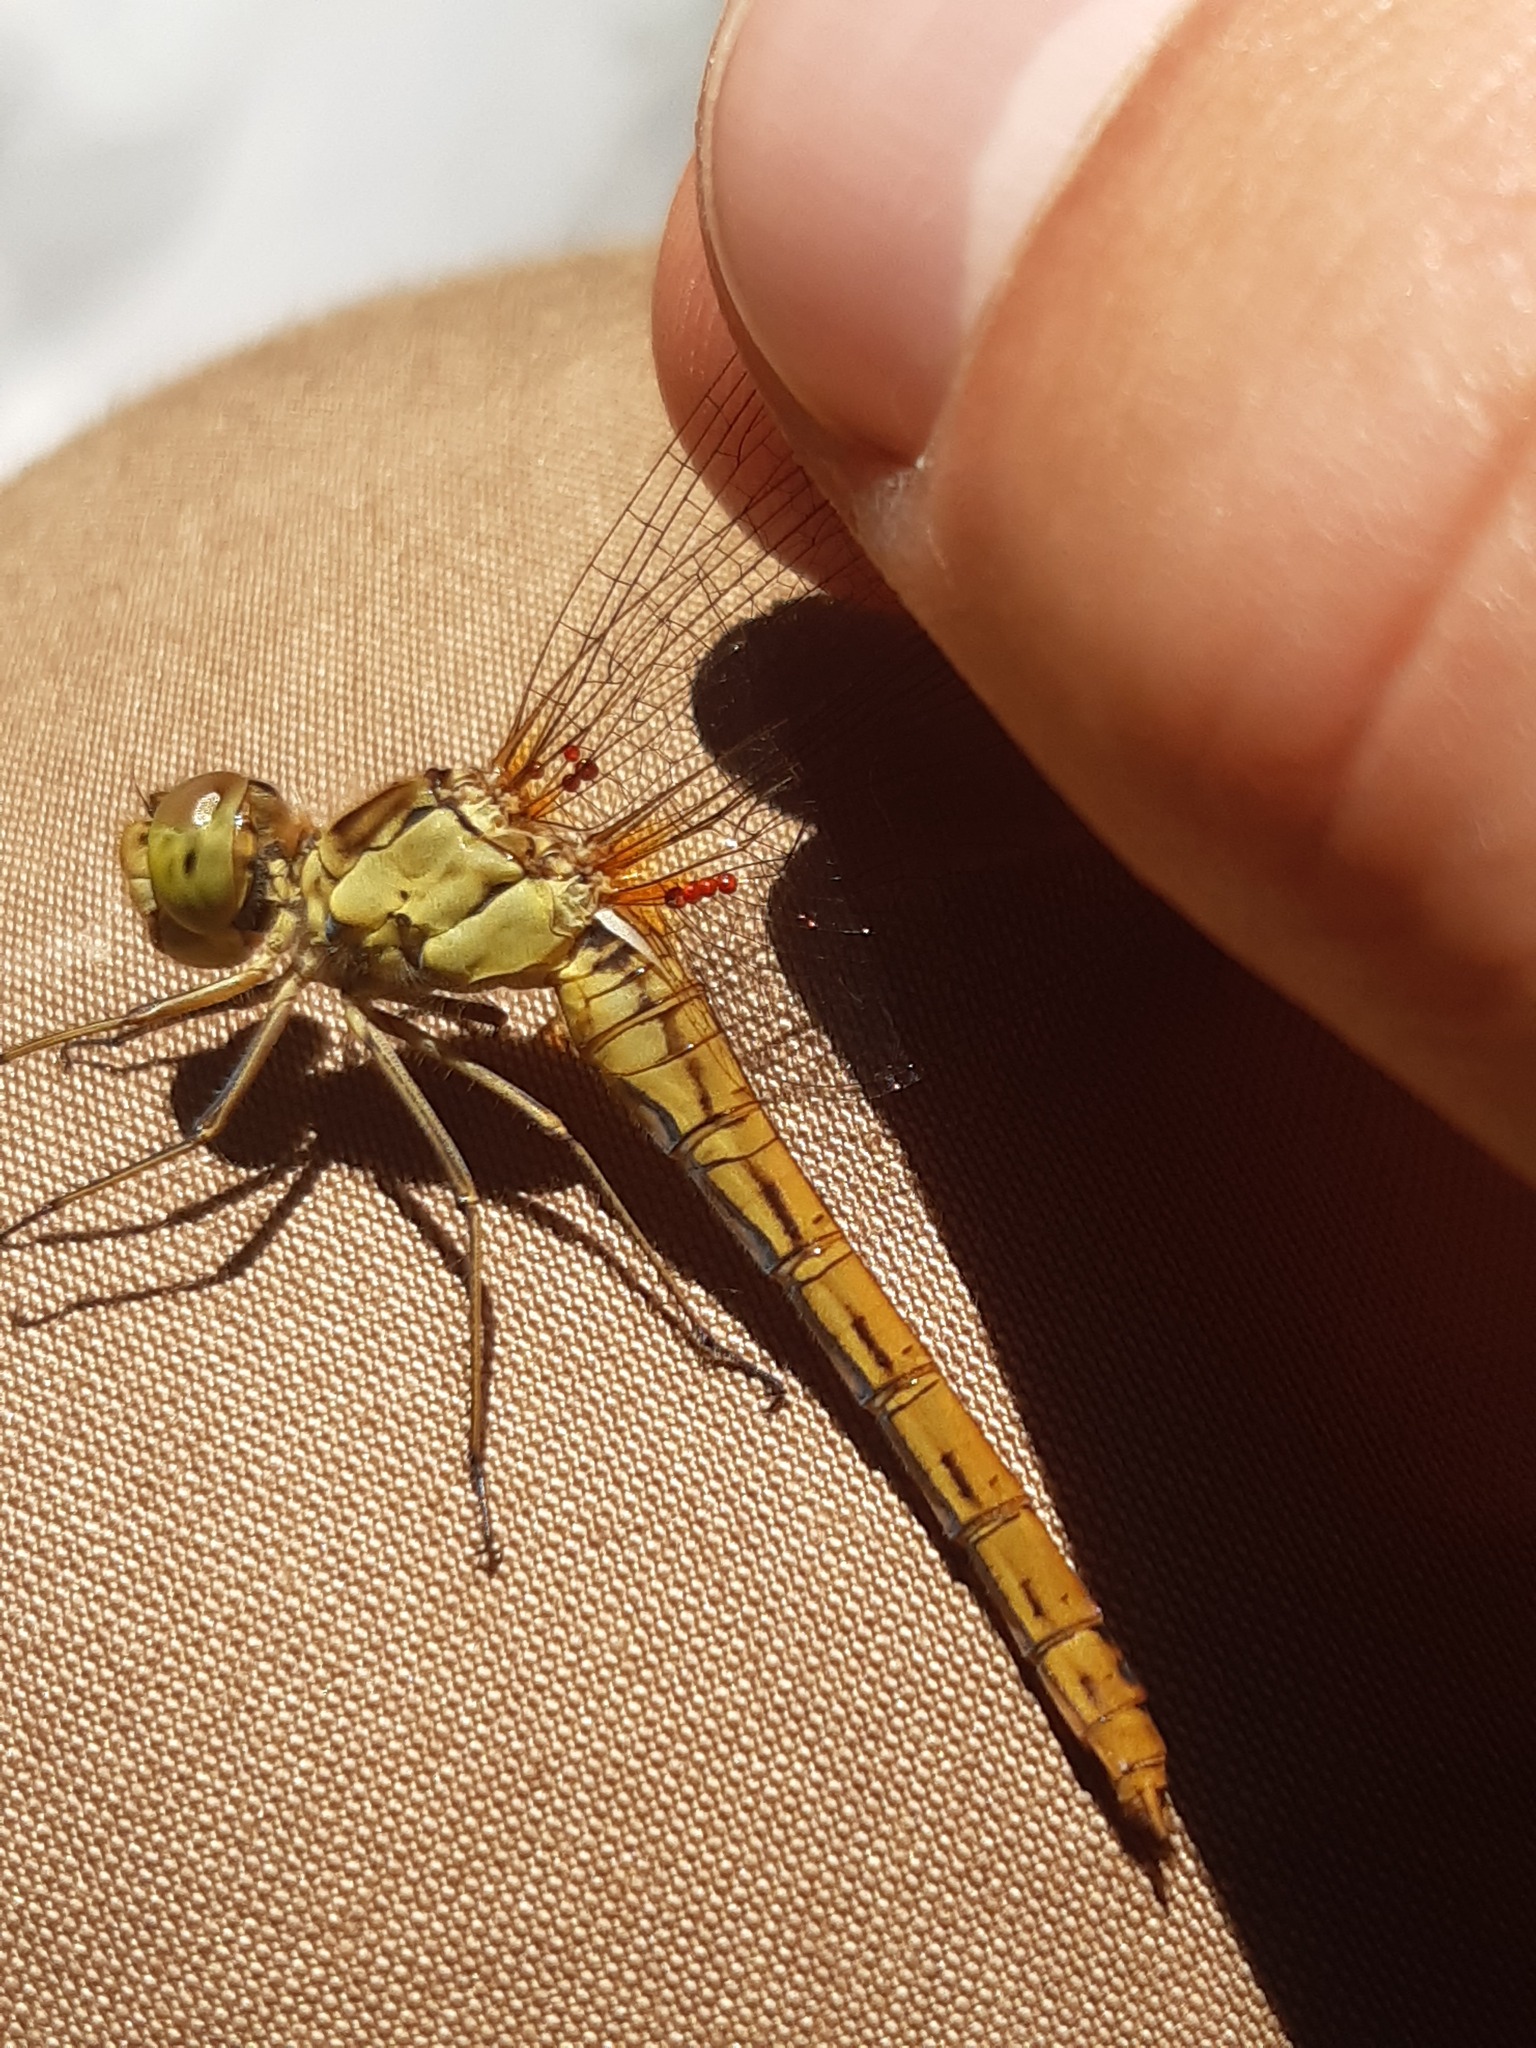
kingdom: Animalia
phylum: Arthropoda
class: Insecta
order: Odonata
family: Libellulidae
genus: Sympetrum
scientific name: Sympetrum meridionale
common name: Southern darter
